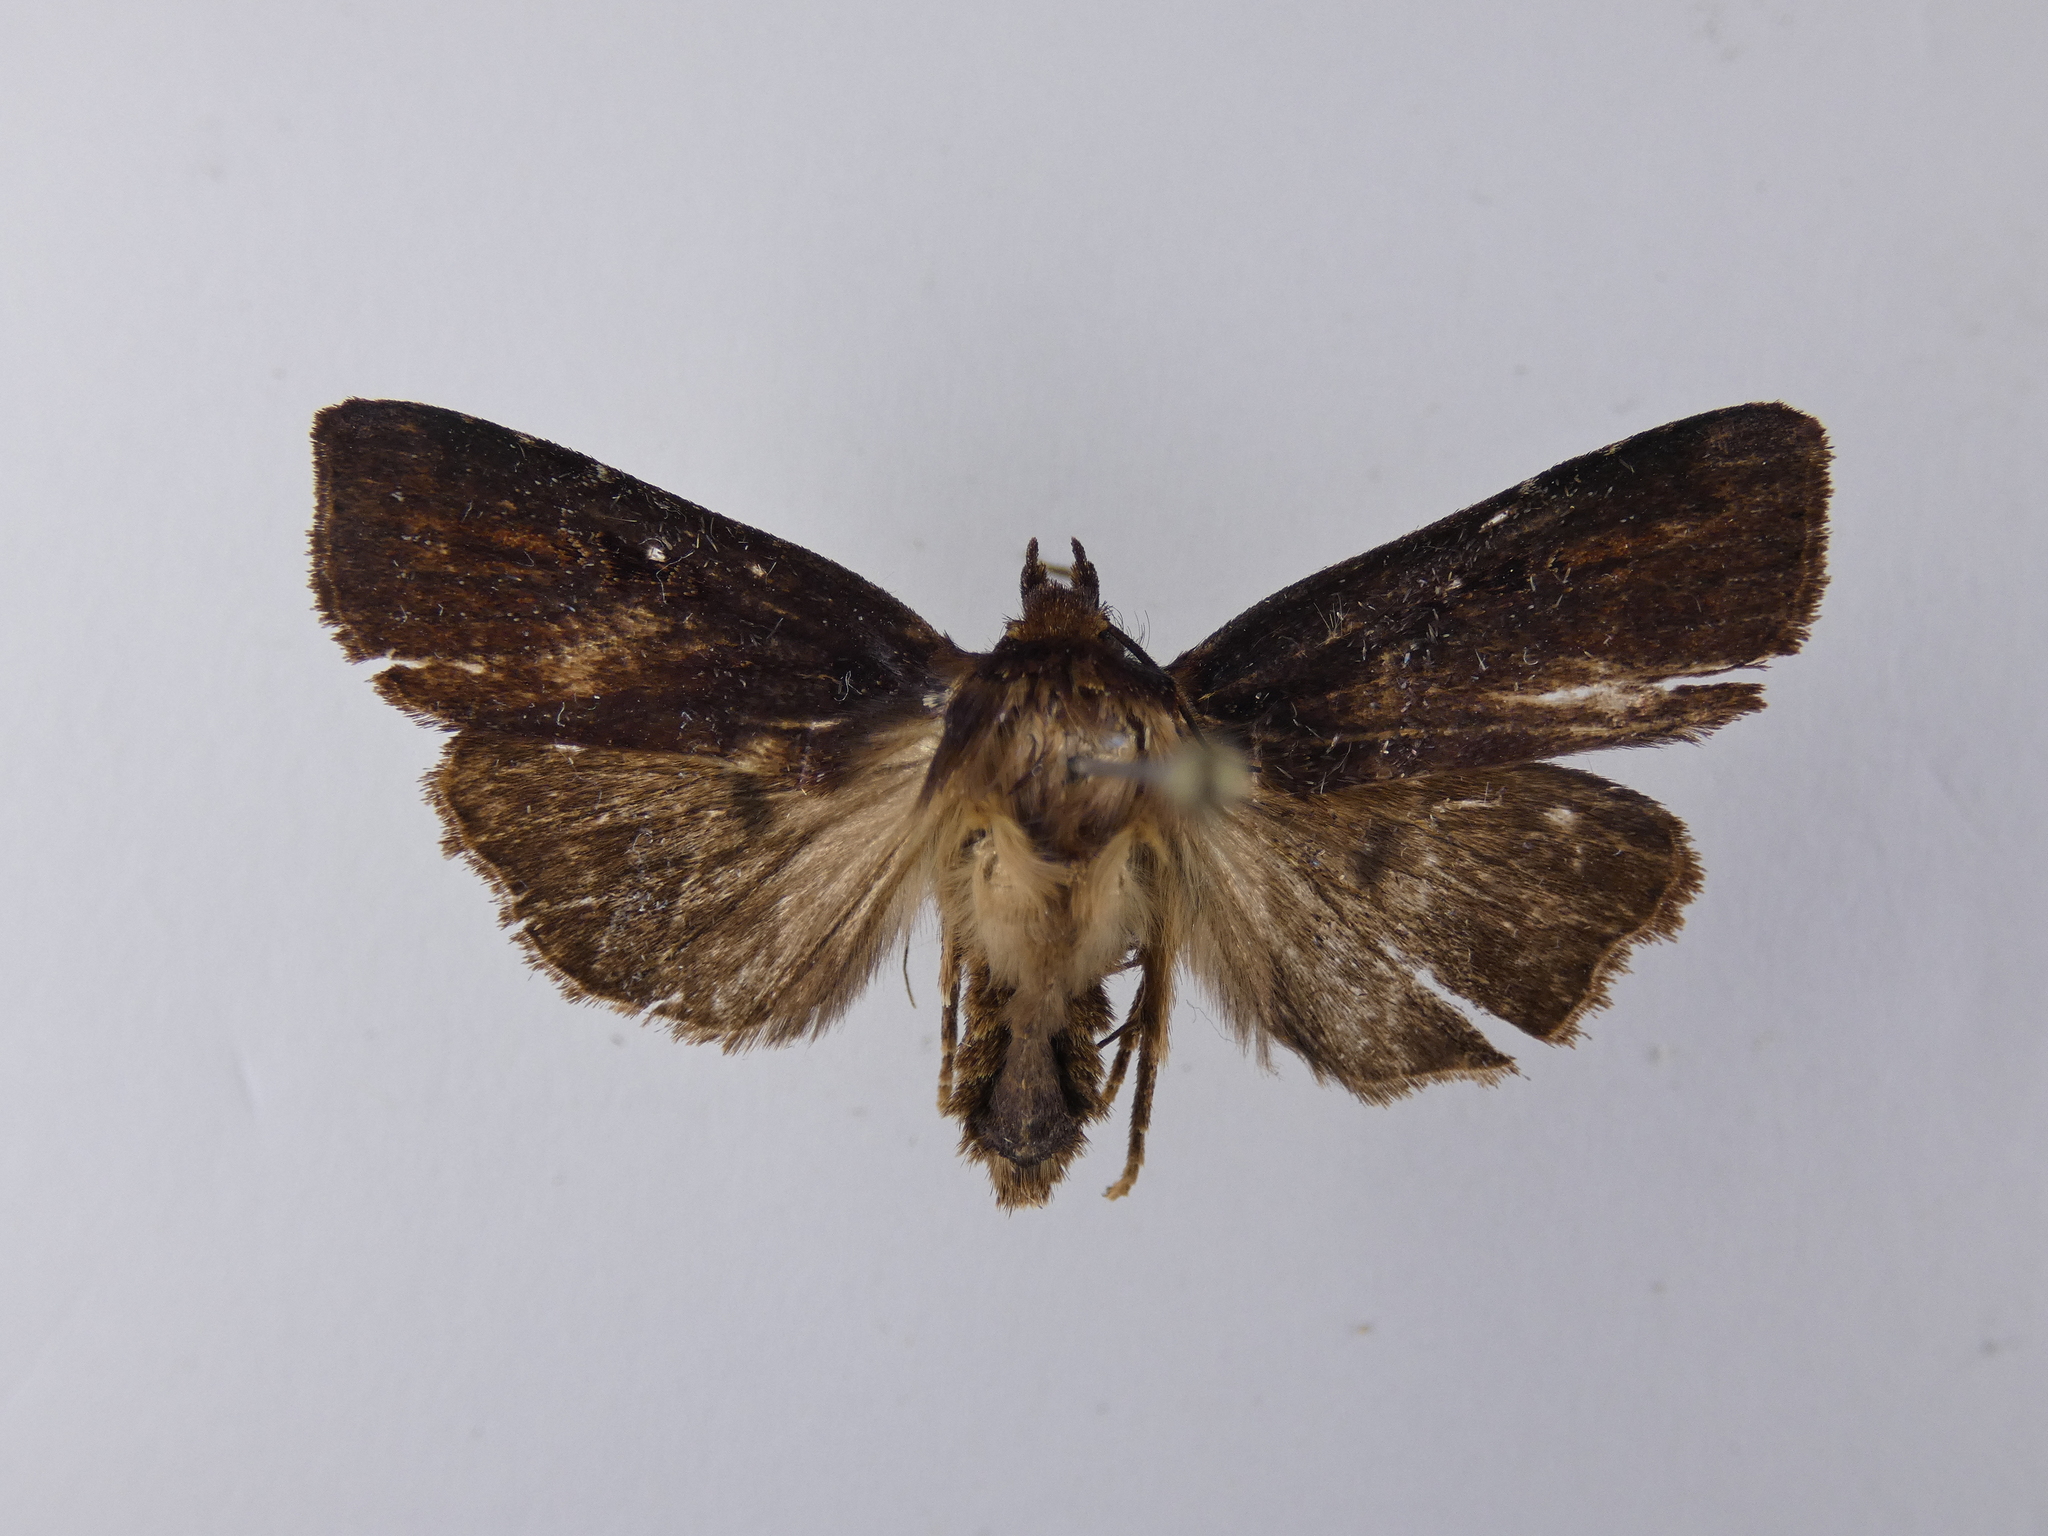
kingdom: Animalia
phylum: Arthropoda
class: Insecta
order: Lepidoptera
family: Noctuidae
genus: Austramathes
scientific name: Austramathes purpurea
